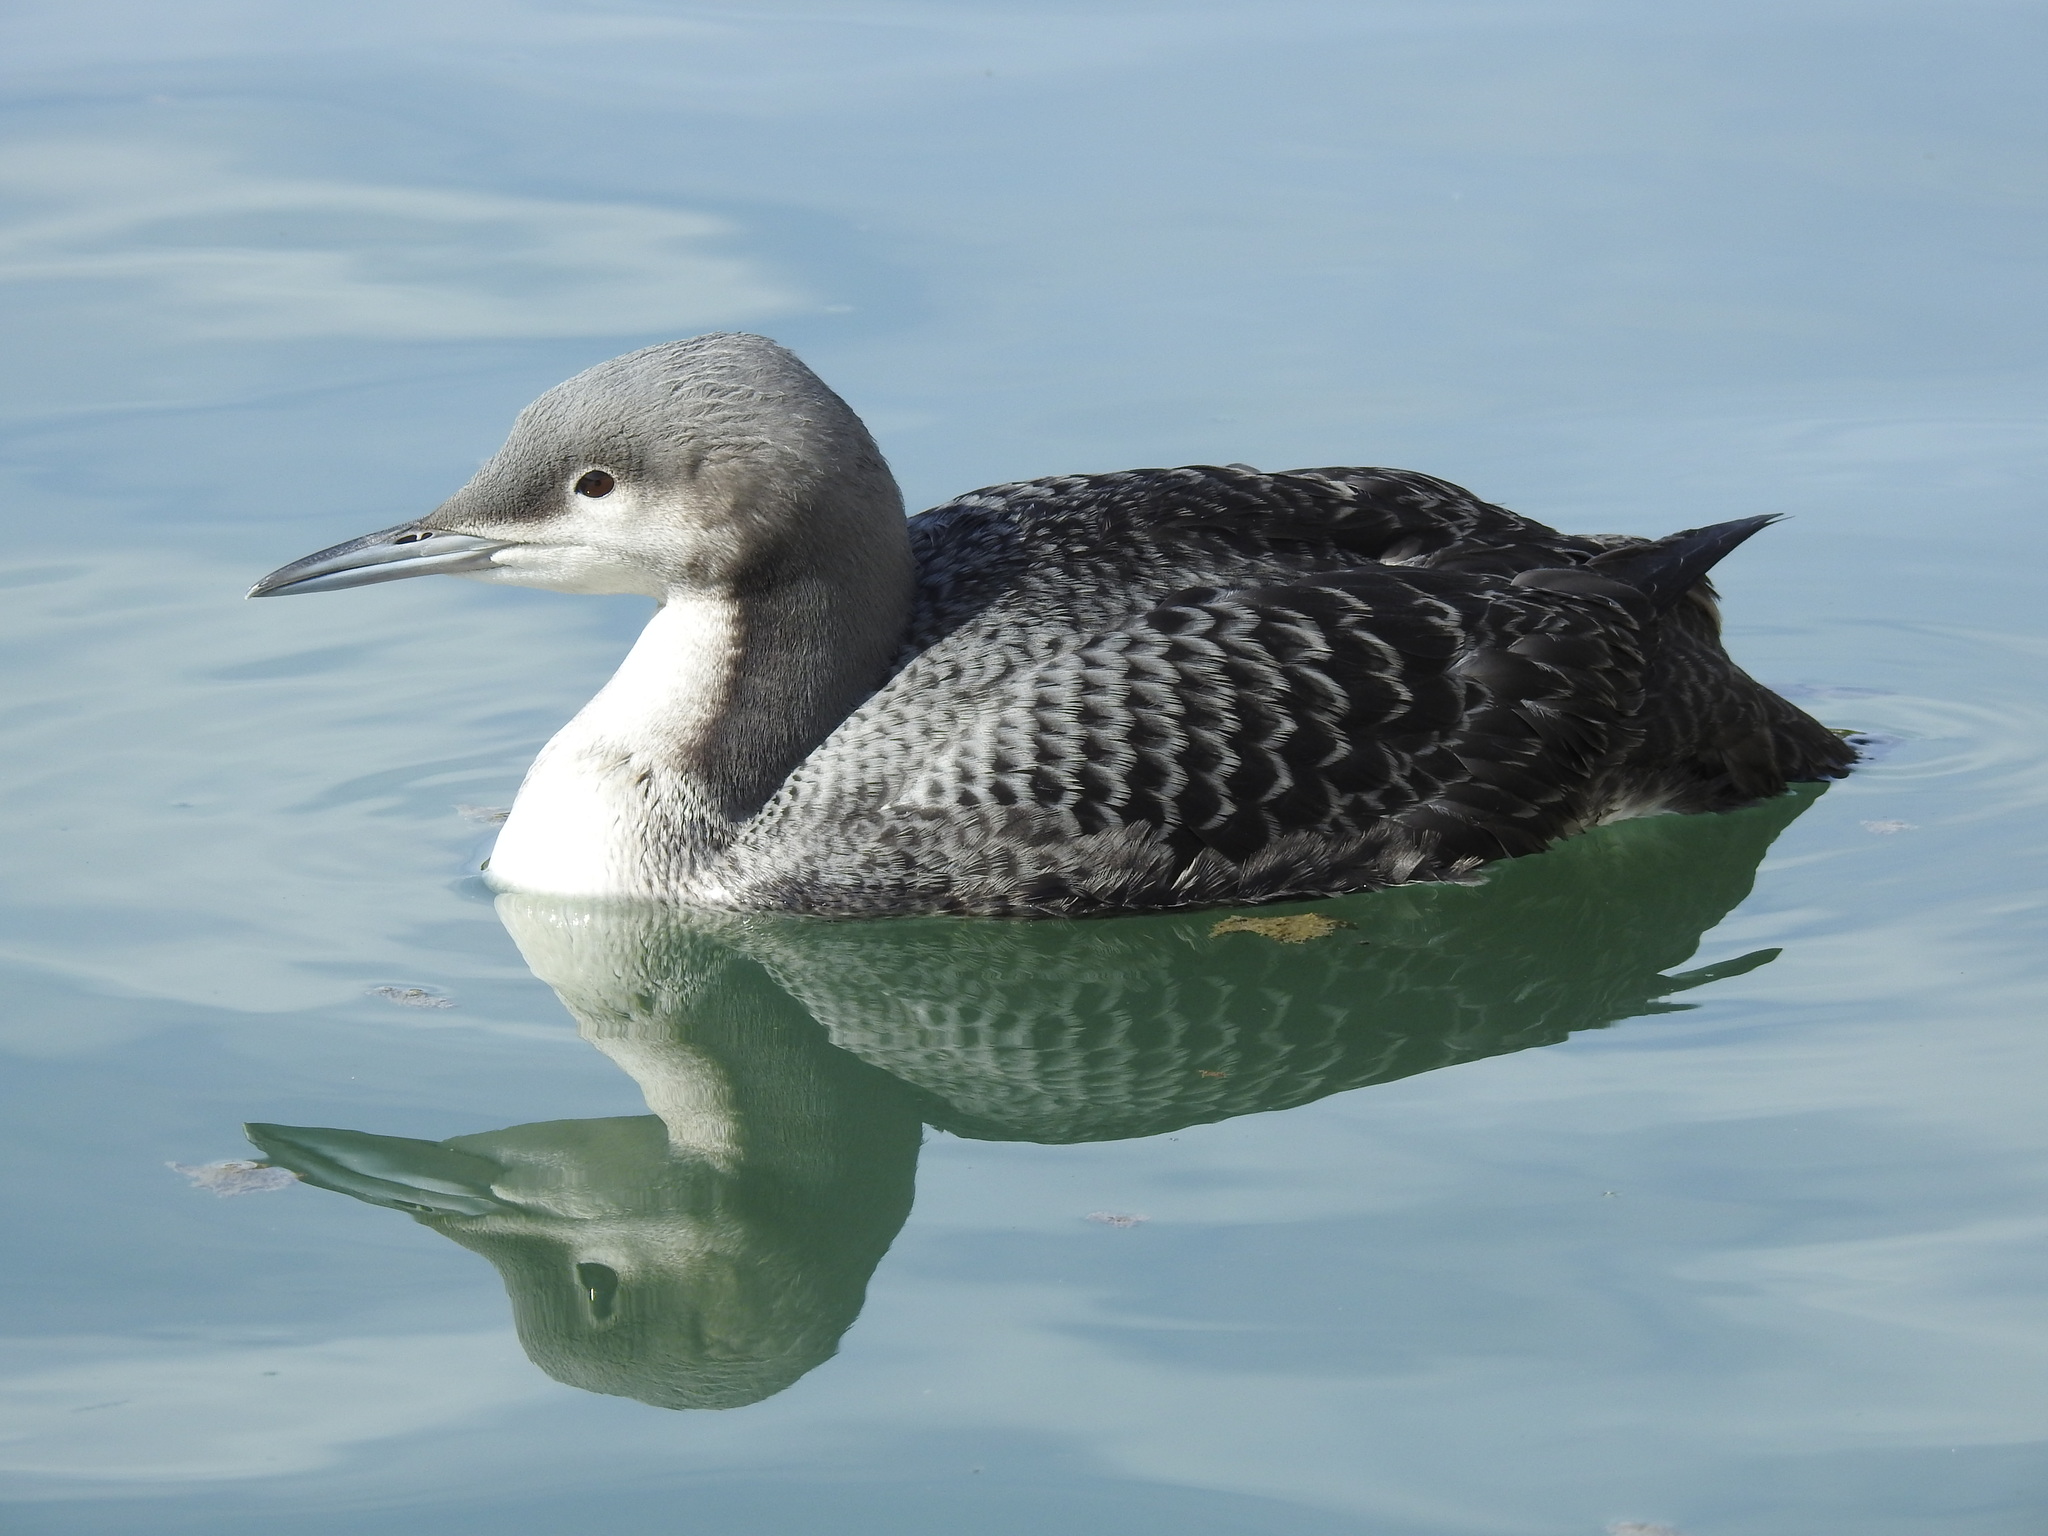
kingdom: Animalia
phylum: Chordata
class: Aves
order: Gaviiformes
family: Gaviidae
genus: Gavia
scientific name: Gavia pacifica
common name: Pacific loon
